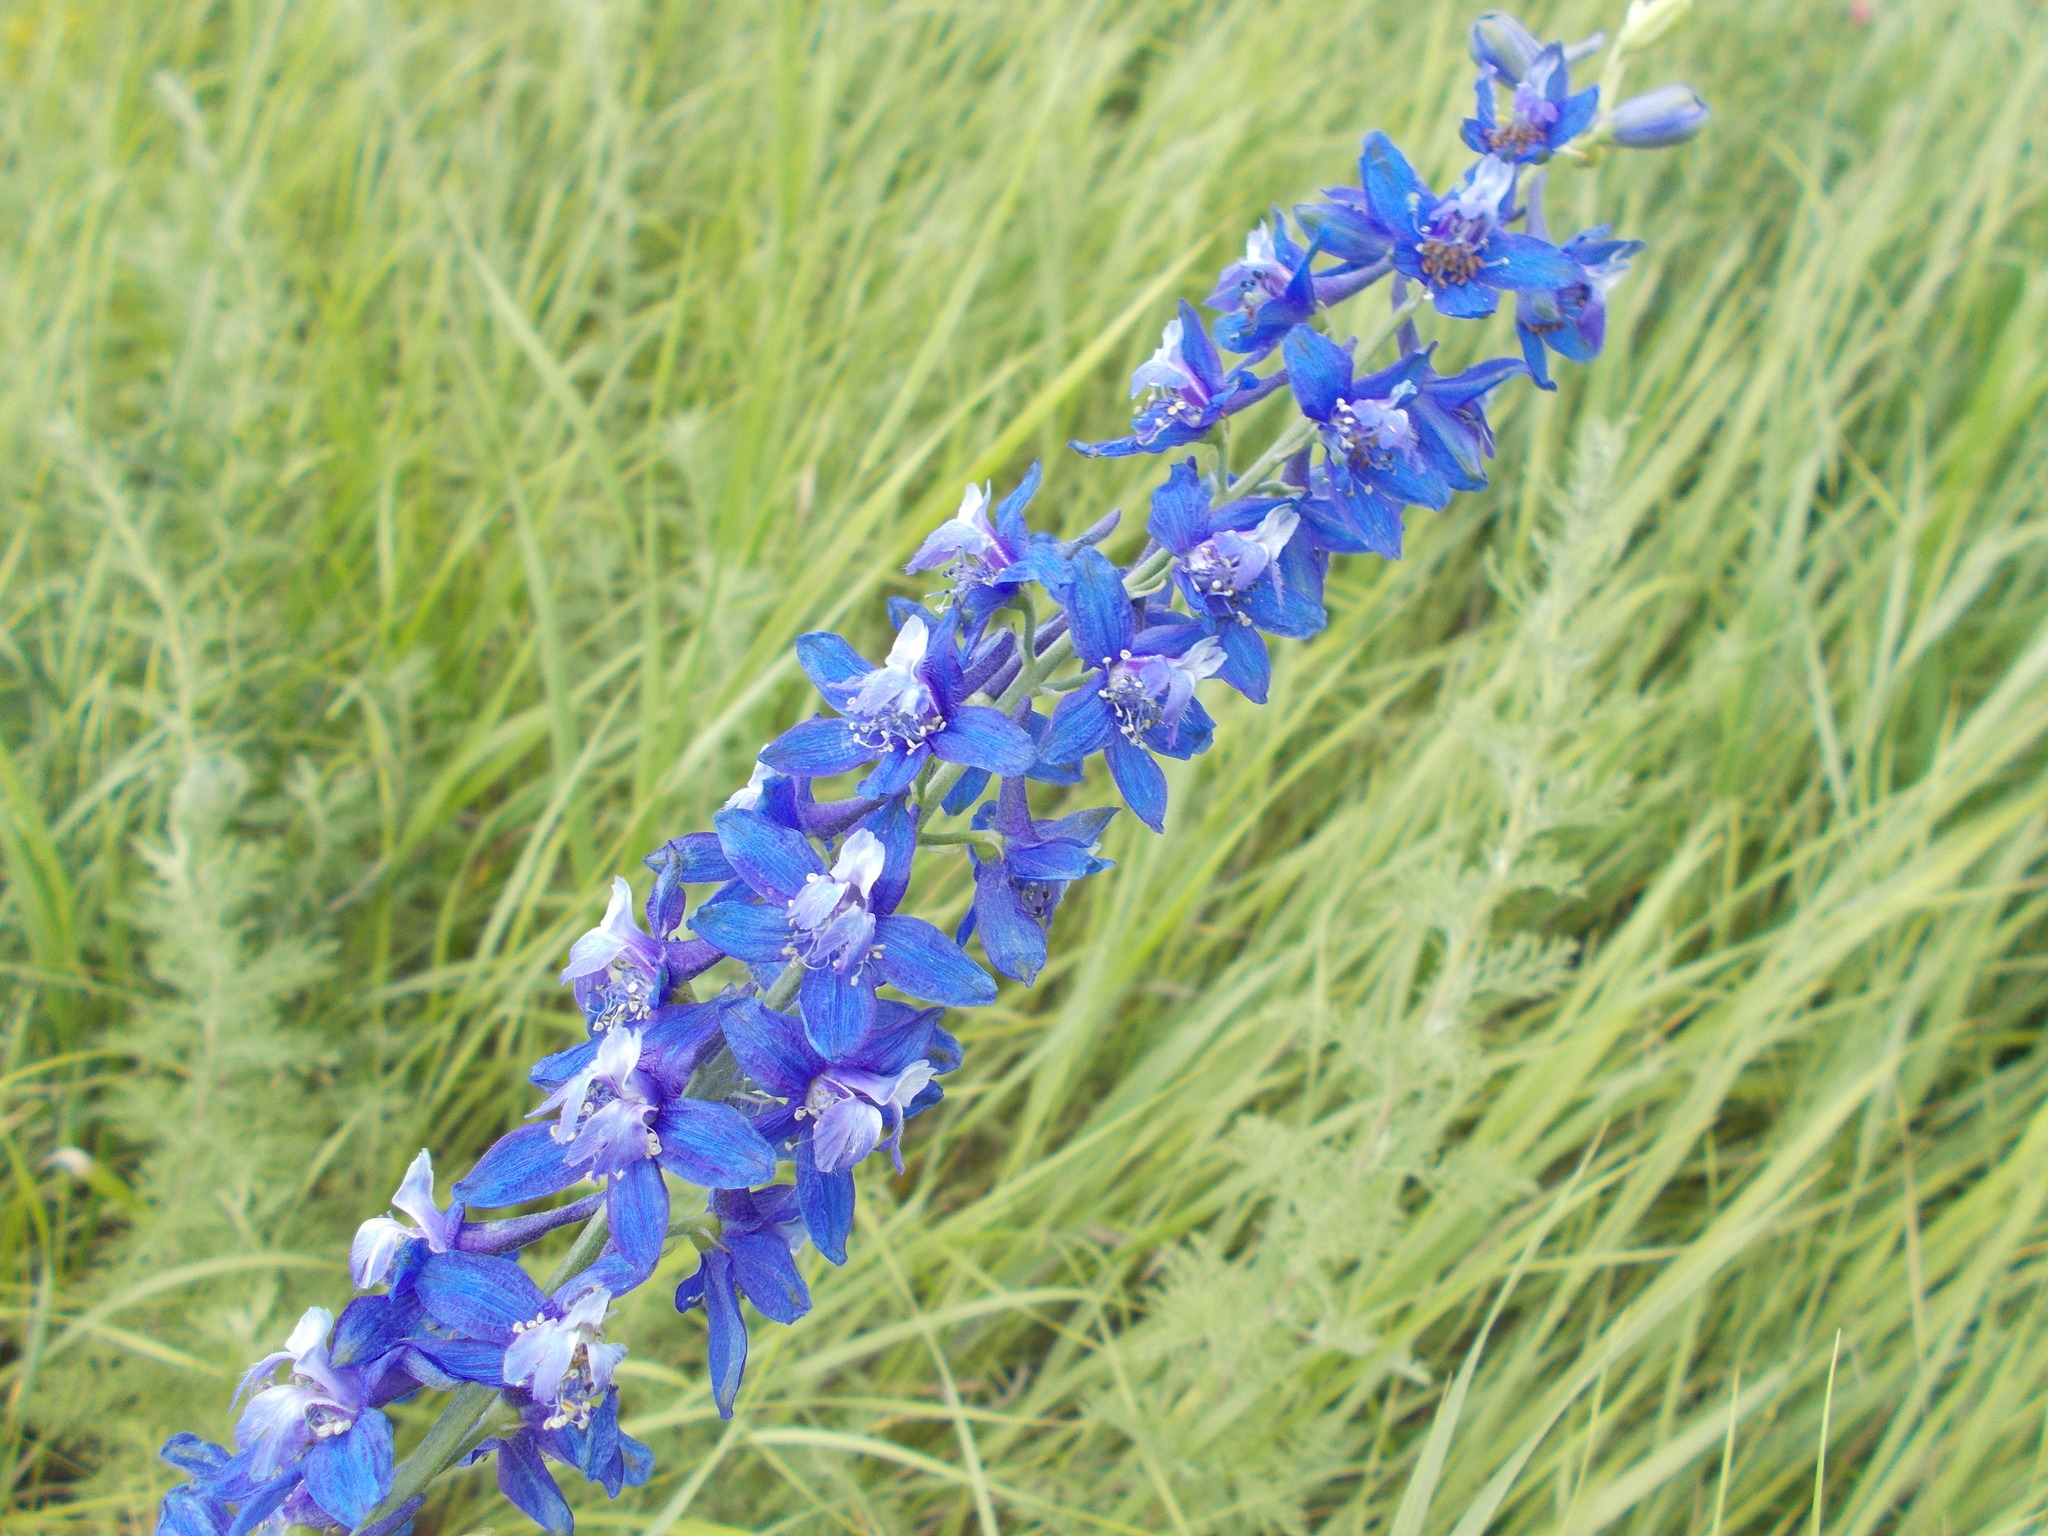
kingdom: Plantae
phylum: Tracheophyta
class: Magnoliopsida
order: Ranunculales
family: Ranunculaceae
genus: Delphinium
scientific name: Delphinium schmalhausenii
